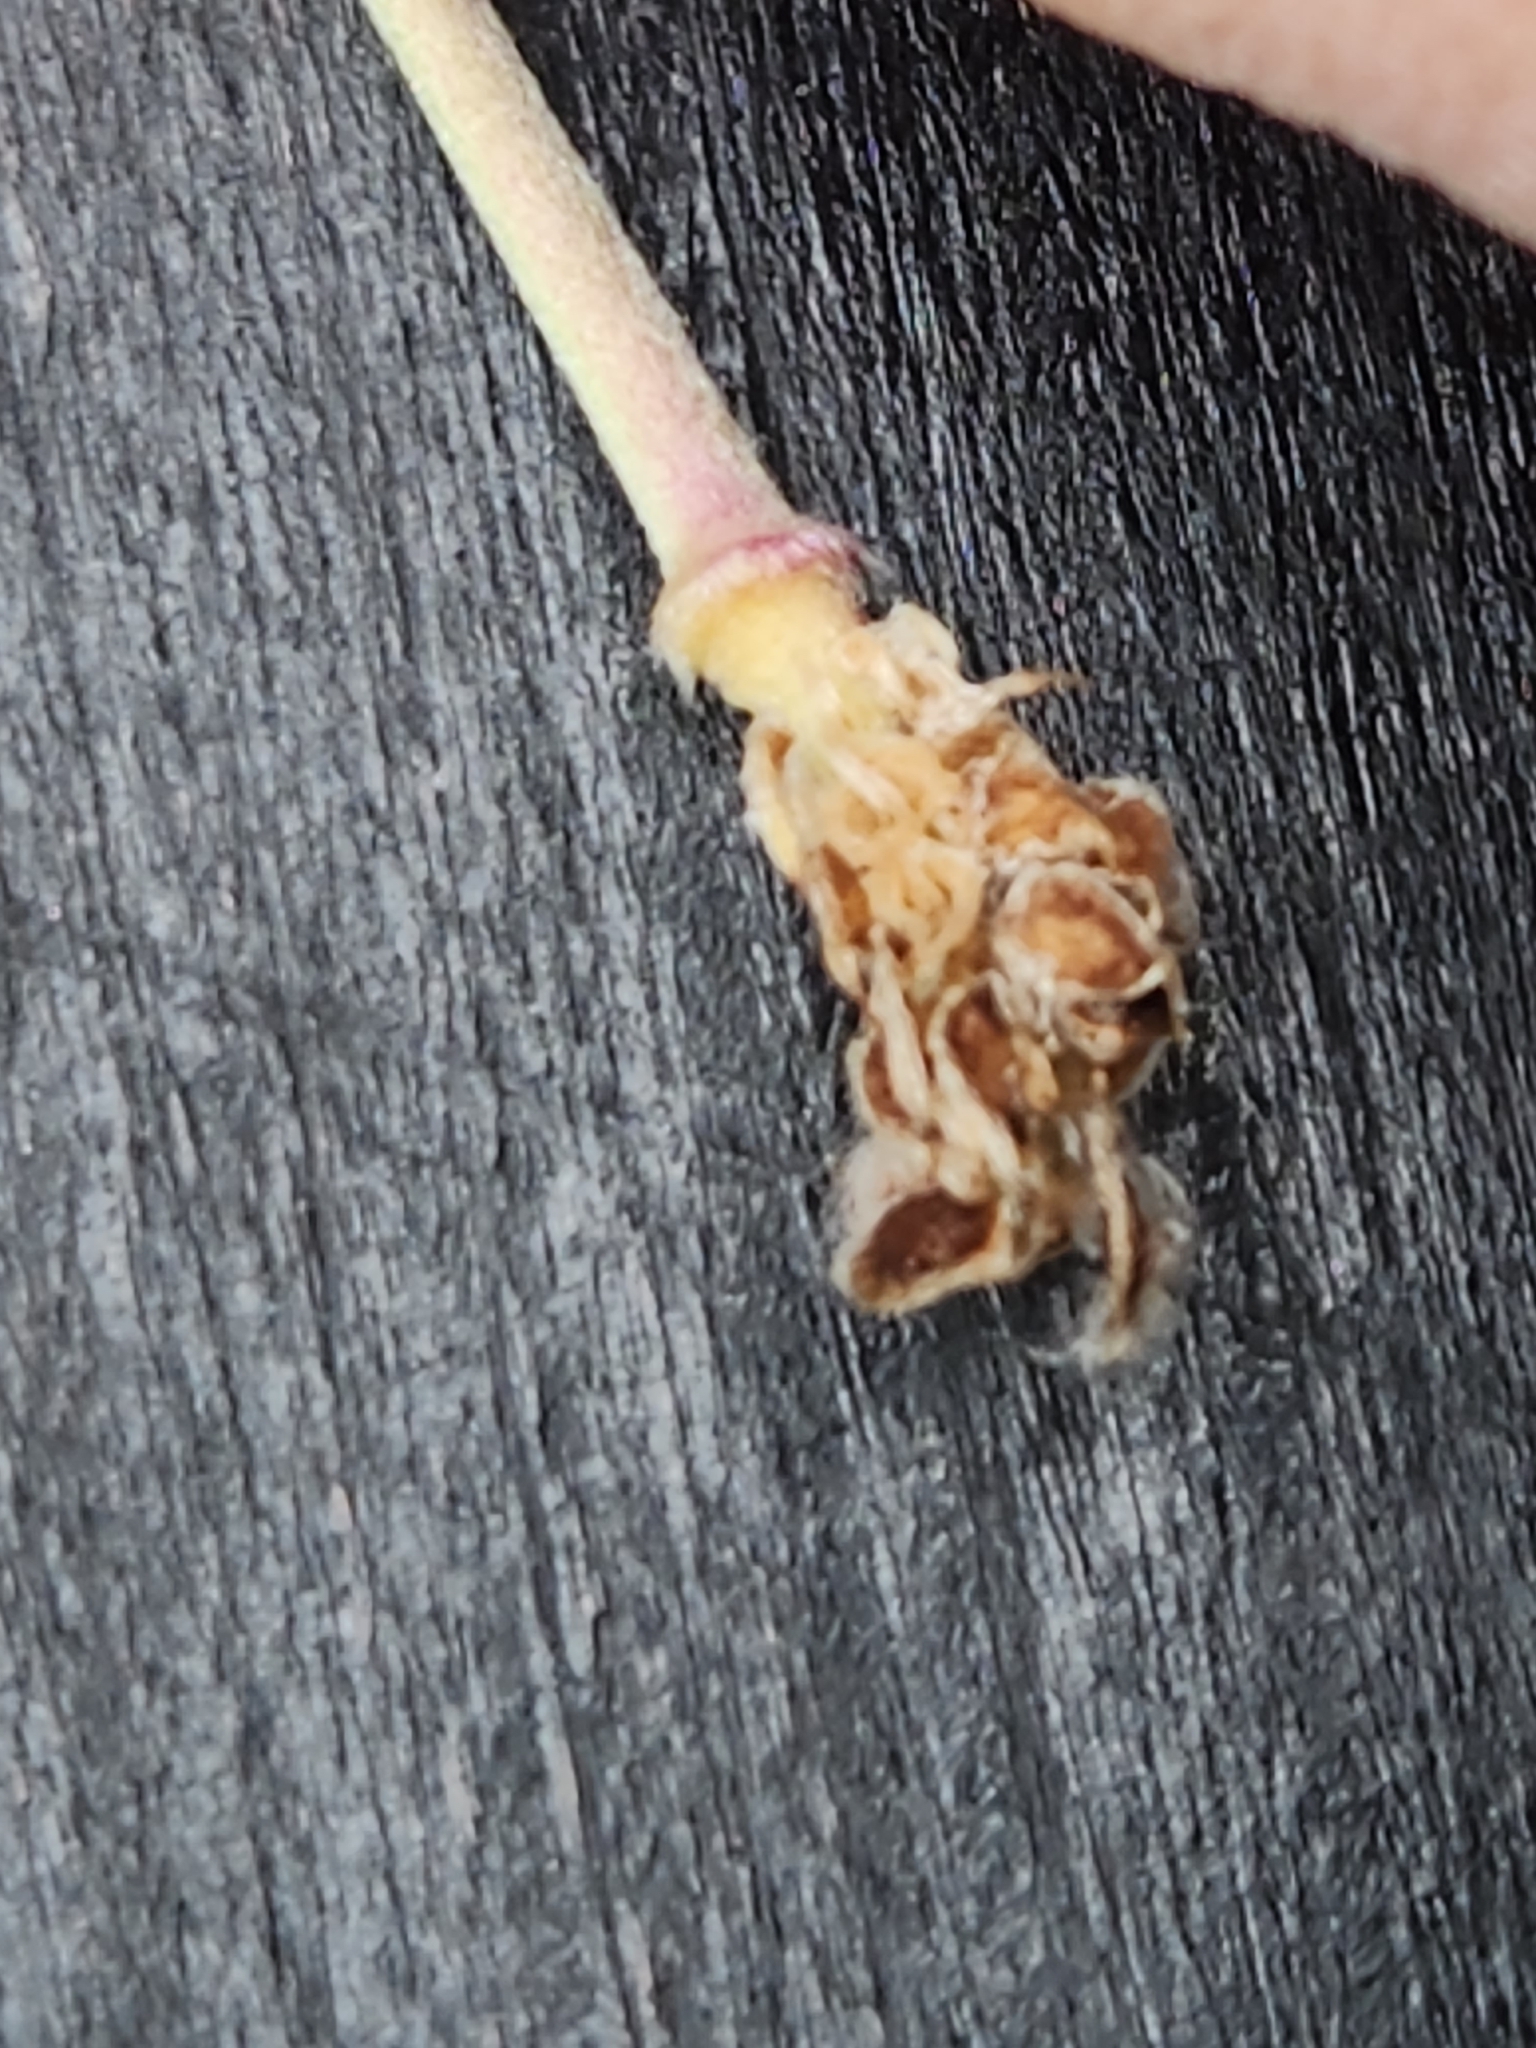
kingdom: Plantae
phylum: Tracheophyta
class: Magnoliopsida
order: Ranunculales
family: Ranunculaceae
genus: Anemone
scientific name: Anemone edwardsiana
